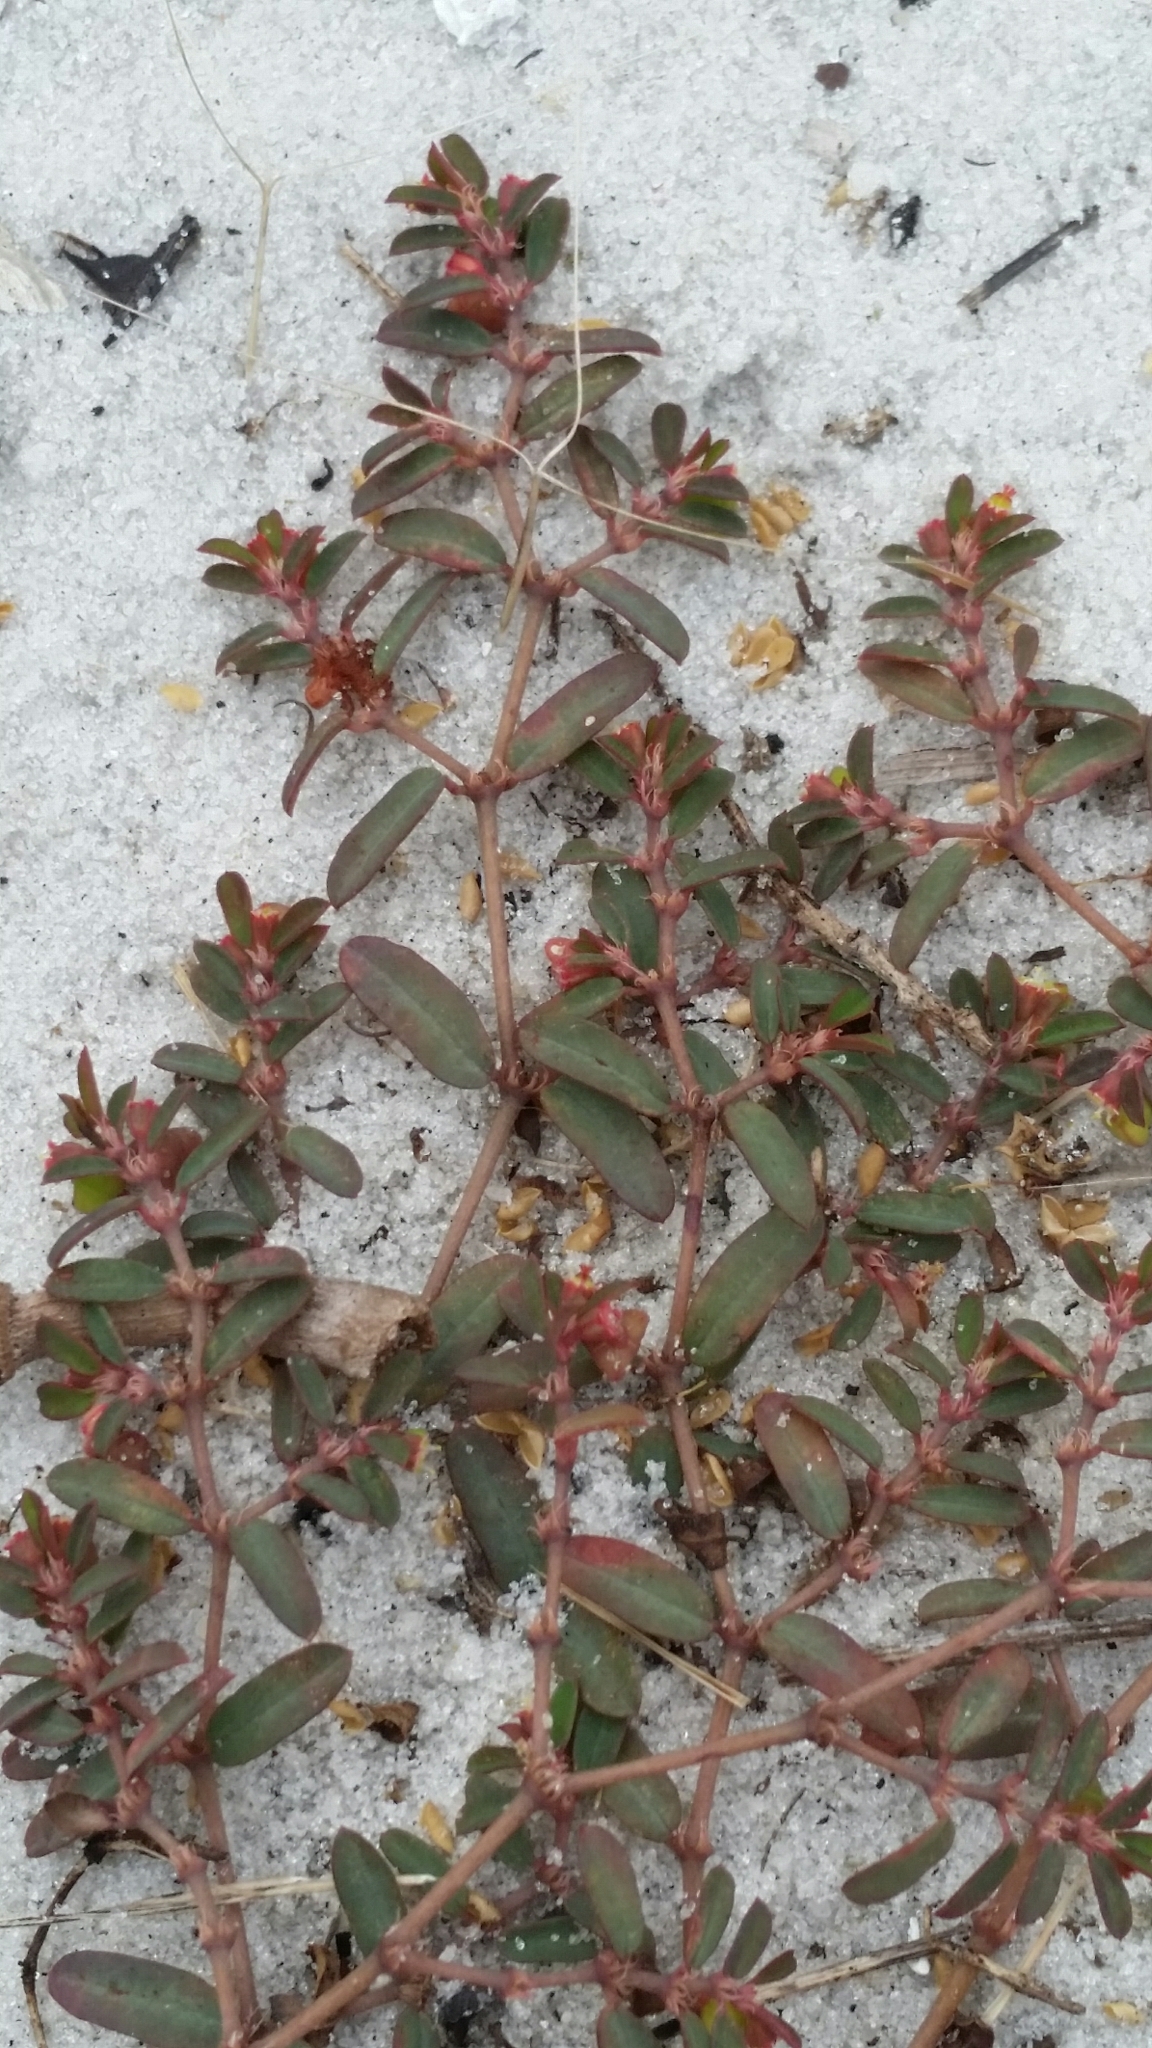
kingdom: Plantae
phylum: Tracheophyta
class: Magnoliopsida
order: Malpighiales
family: Euphorbiaceae
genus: Euphorbia
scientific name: Euphorbia cumulicola
